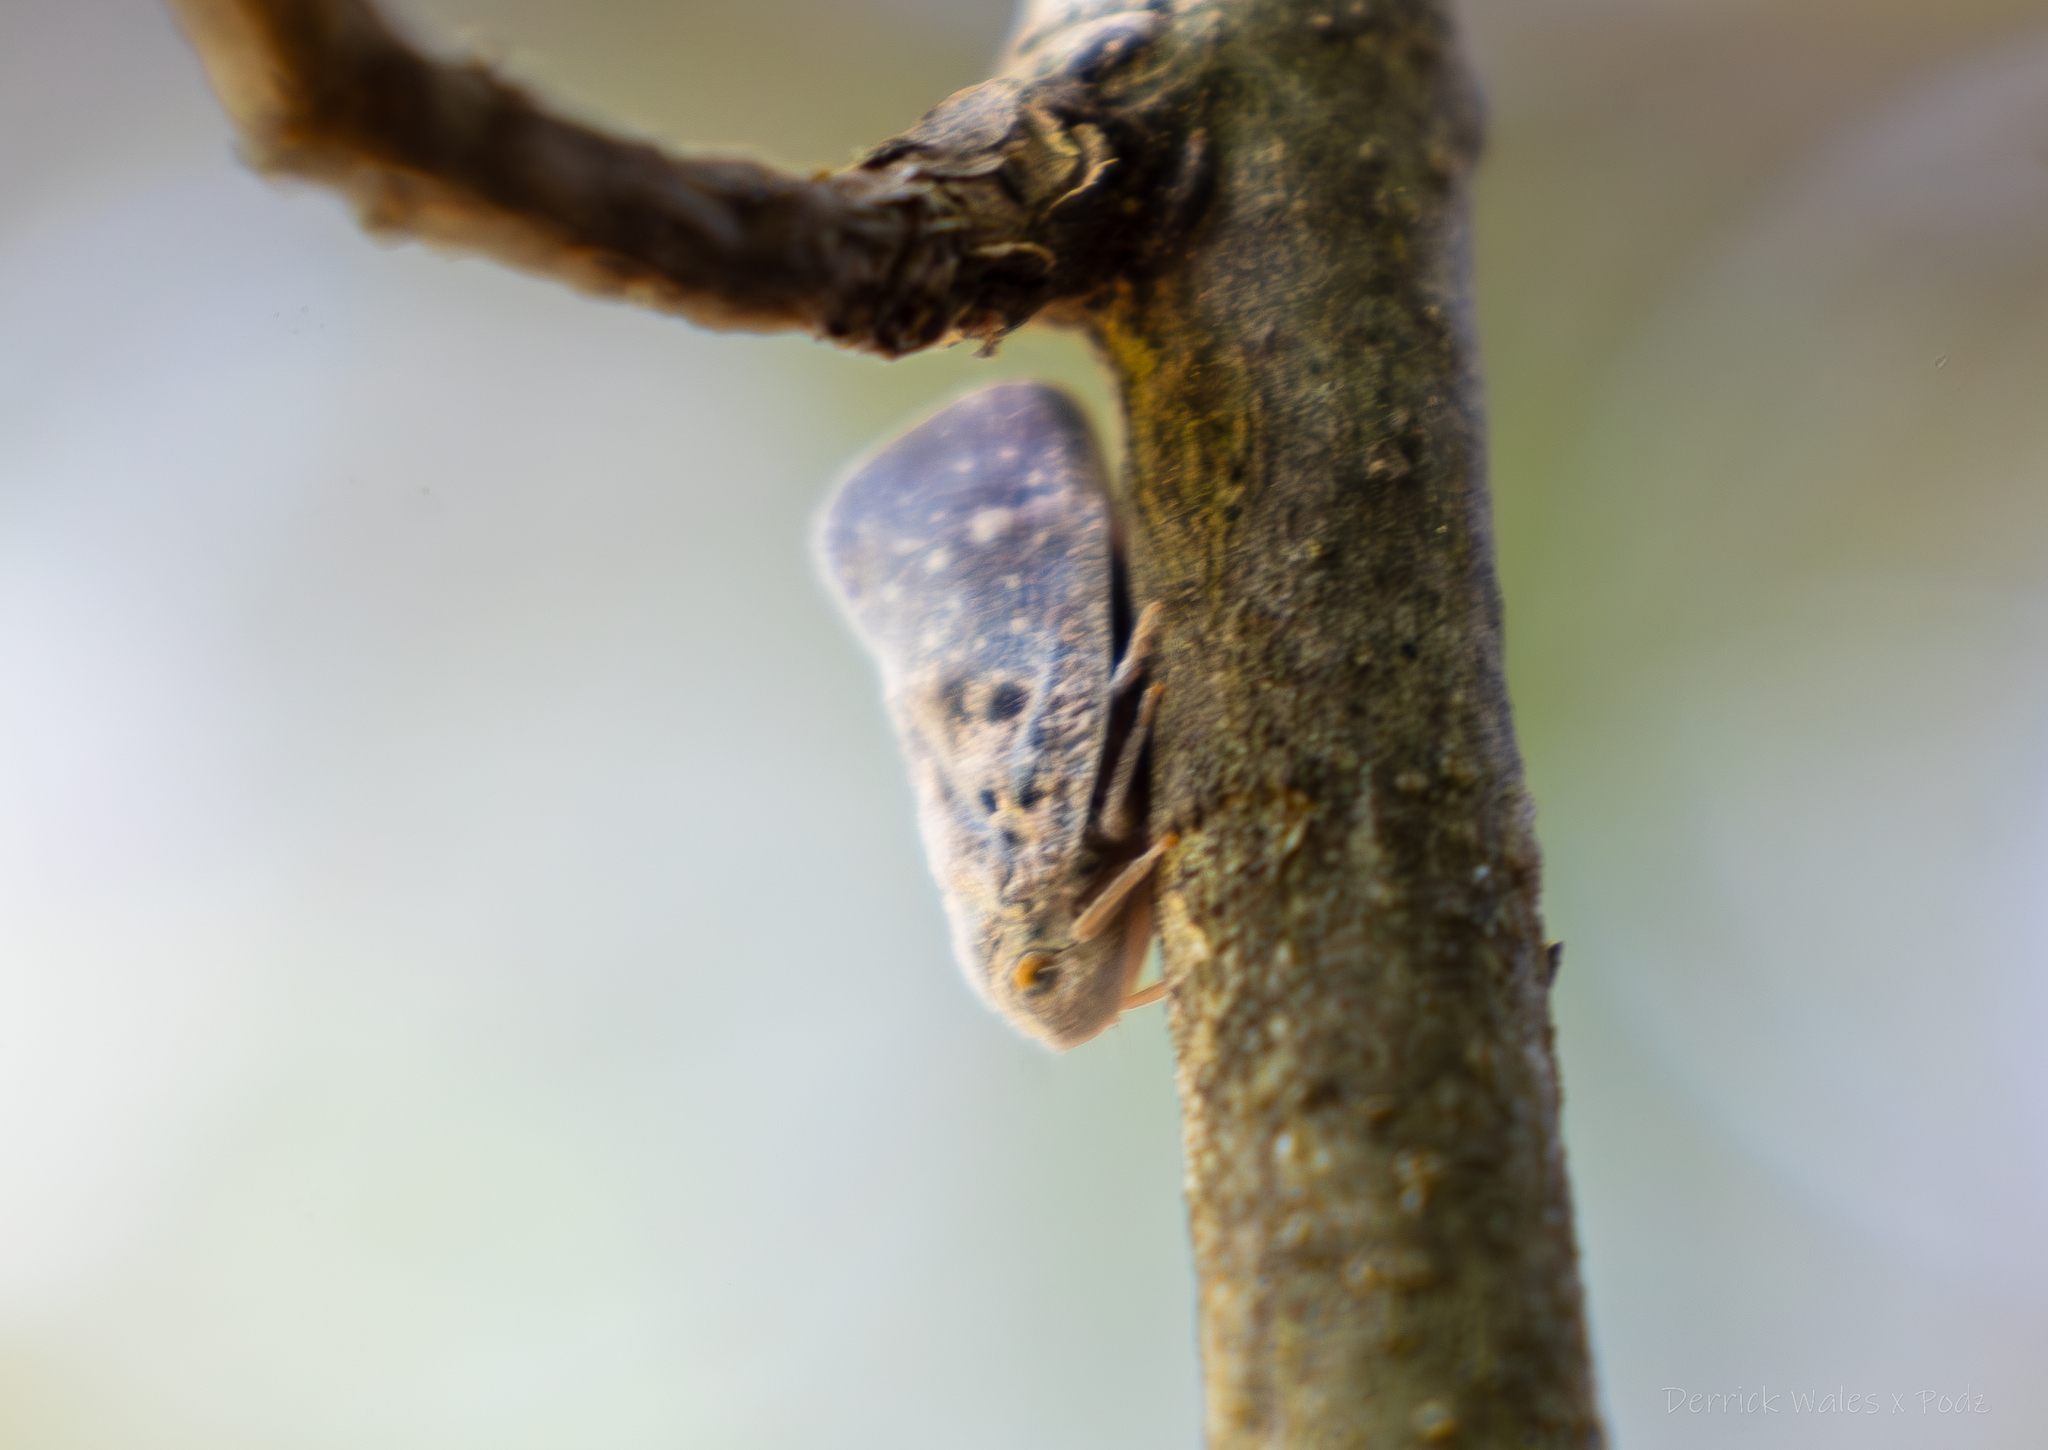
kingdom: Animalia
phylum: Arthropoda
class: Insecta
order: Hemiptera
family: Flatidae
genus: Metcalfa
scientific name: Metcalfa pruinosa
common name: Citrus flatid planthopper
